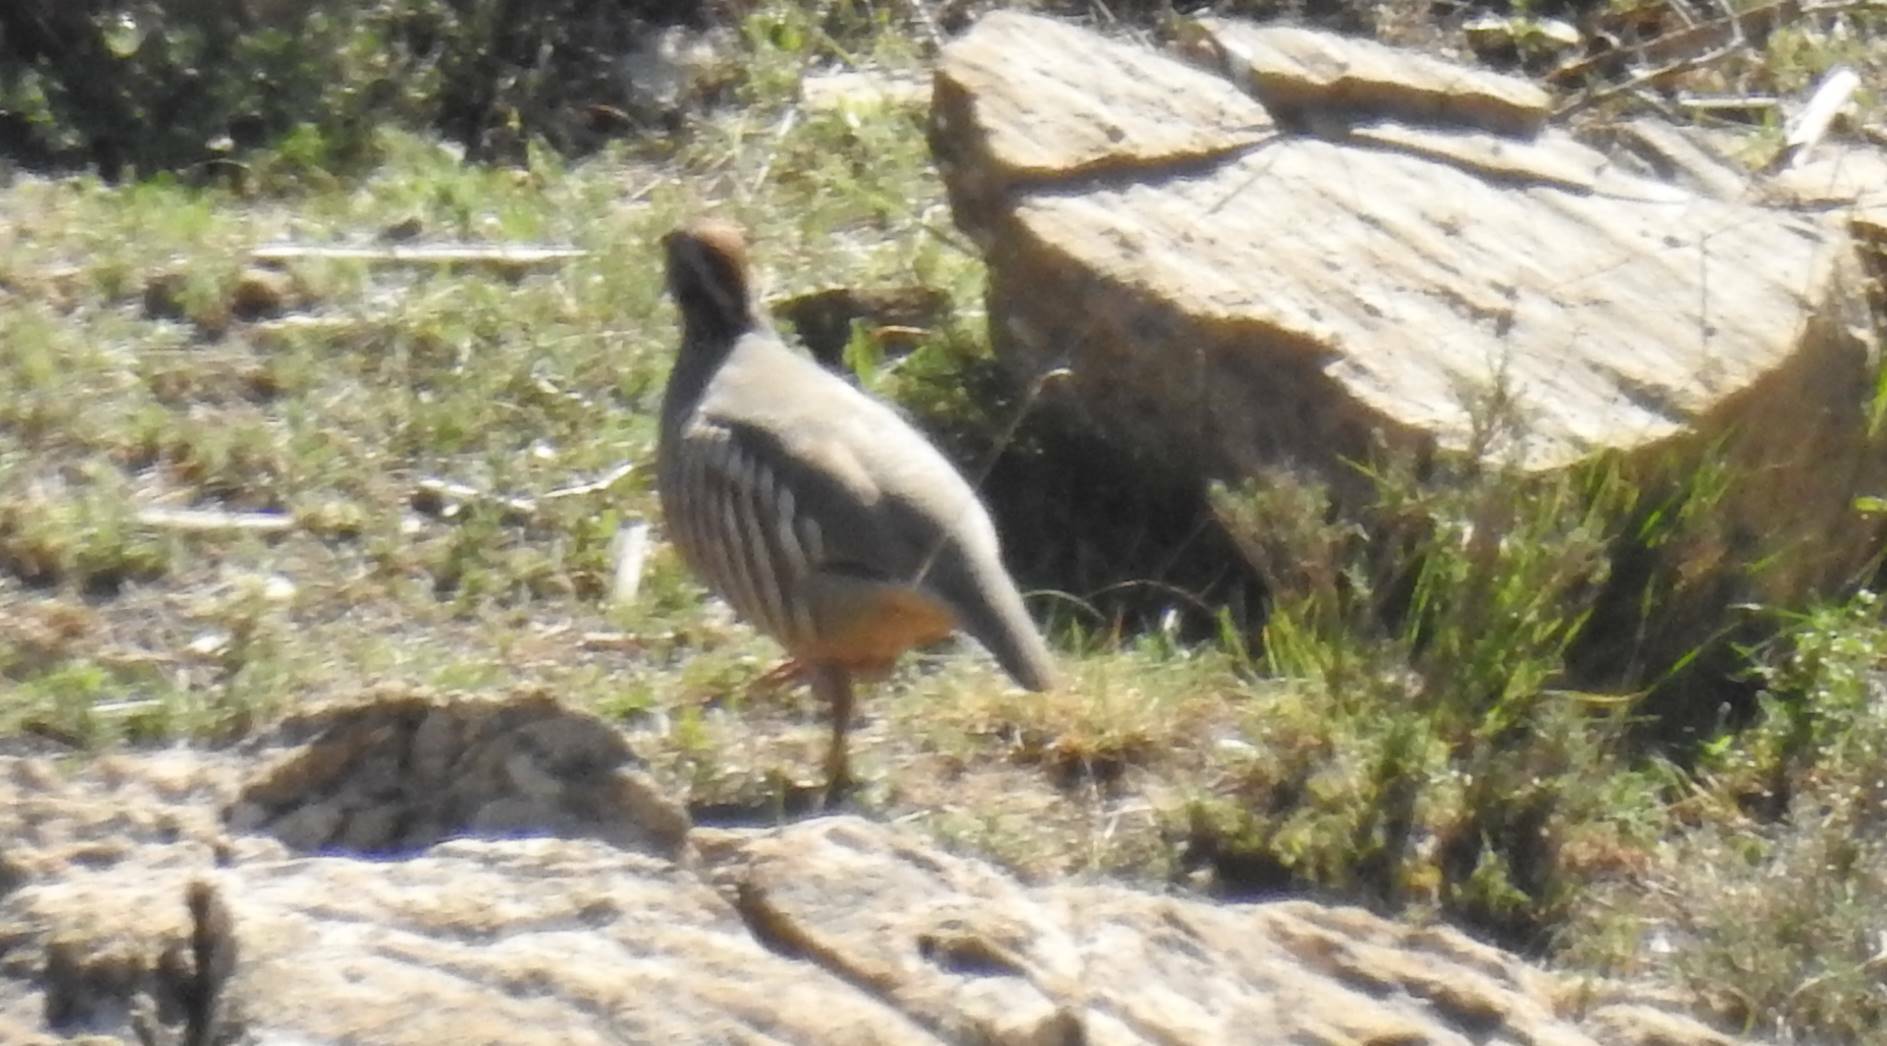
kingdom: Animalia
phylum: Chordata
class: Aves
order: Galliformes
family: Phasianidae
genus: Alectoris
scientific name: Alectoris barbara
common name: Barbary partridge
